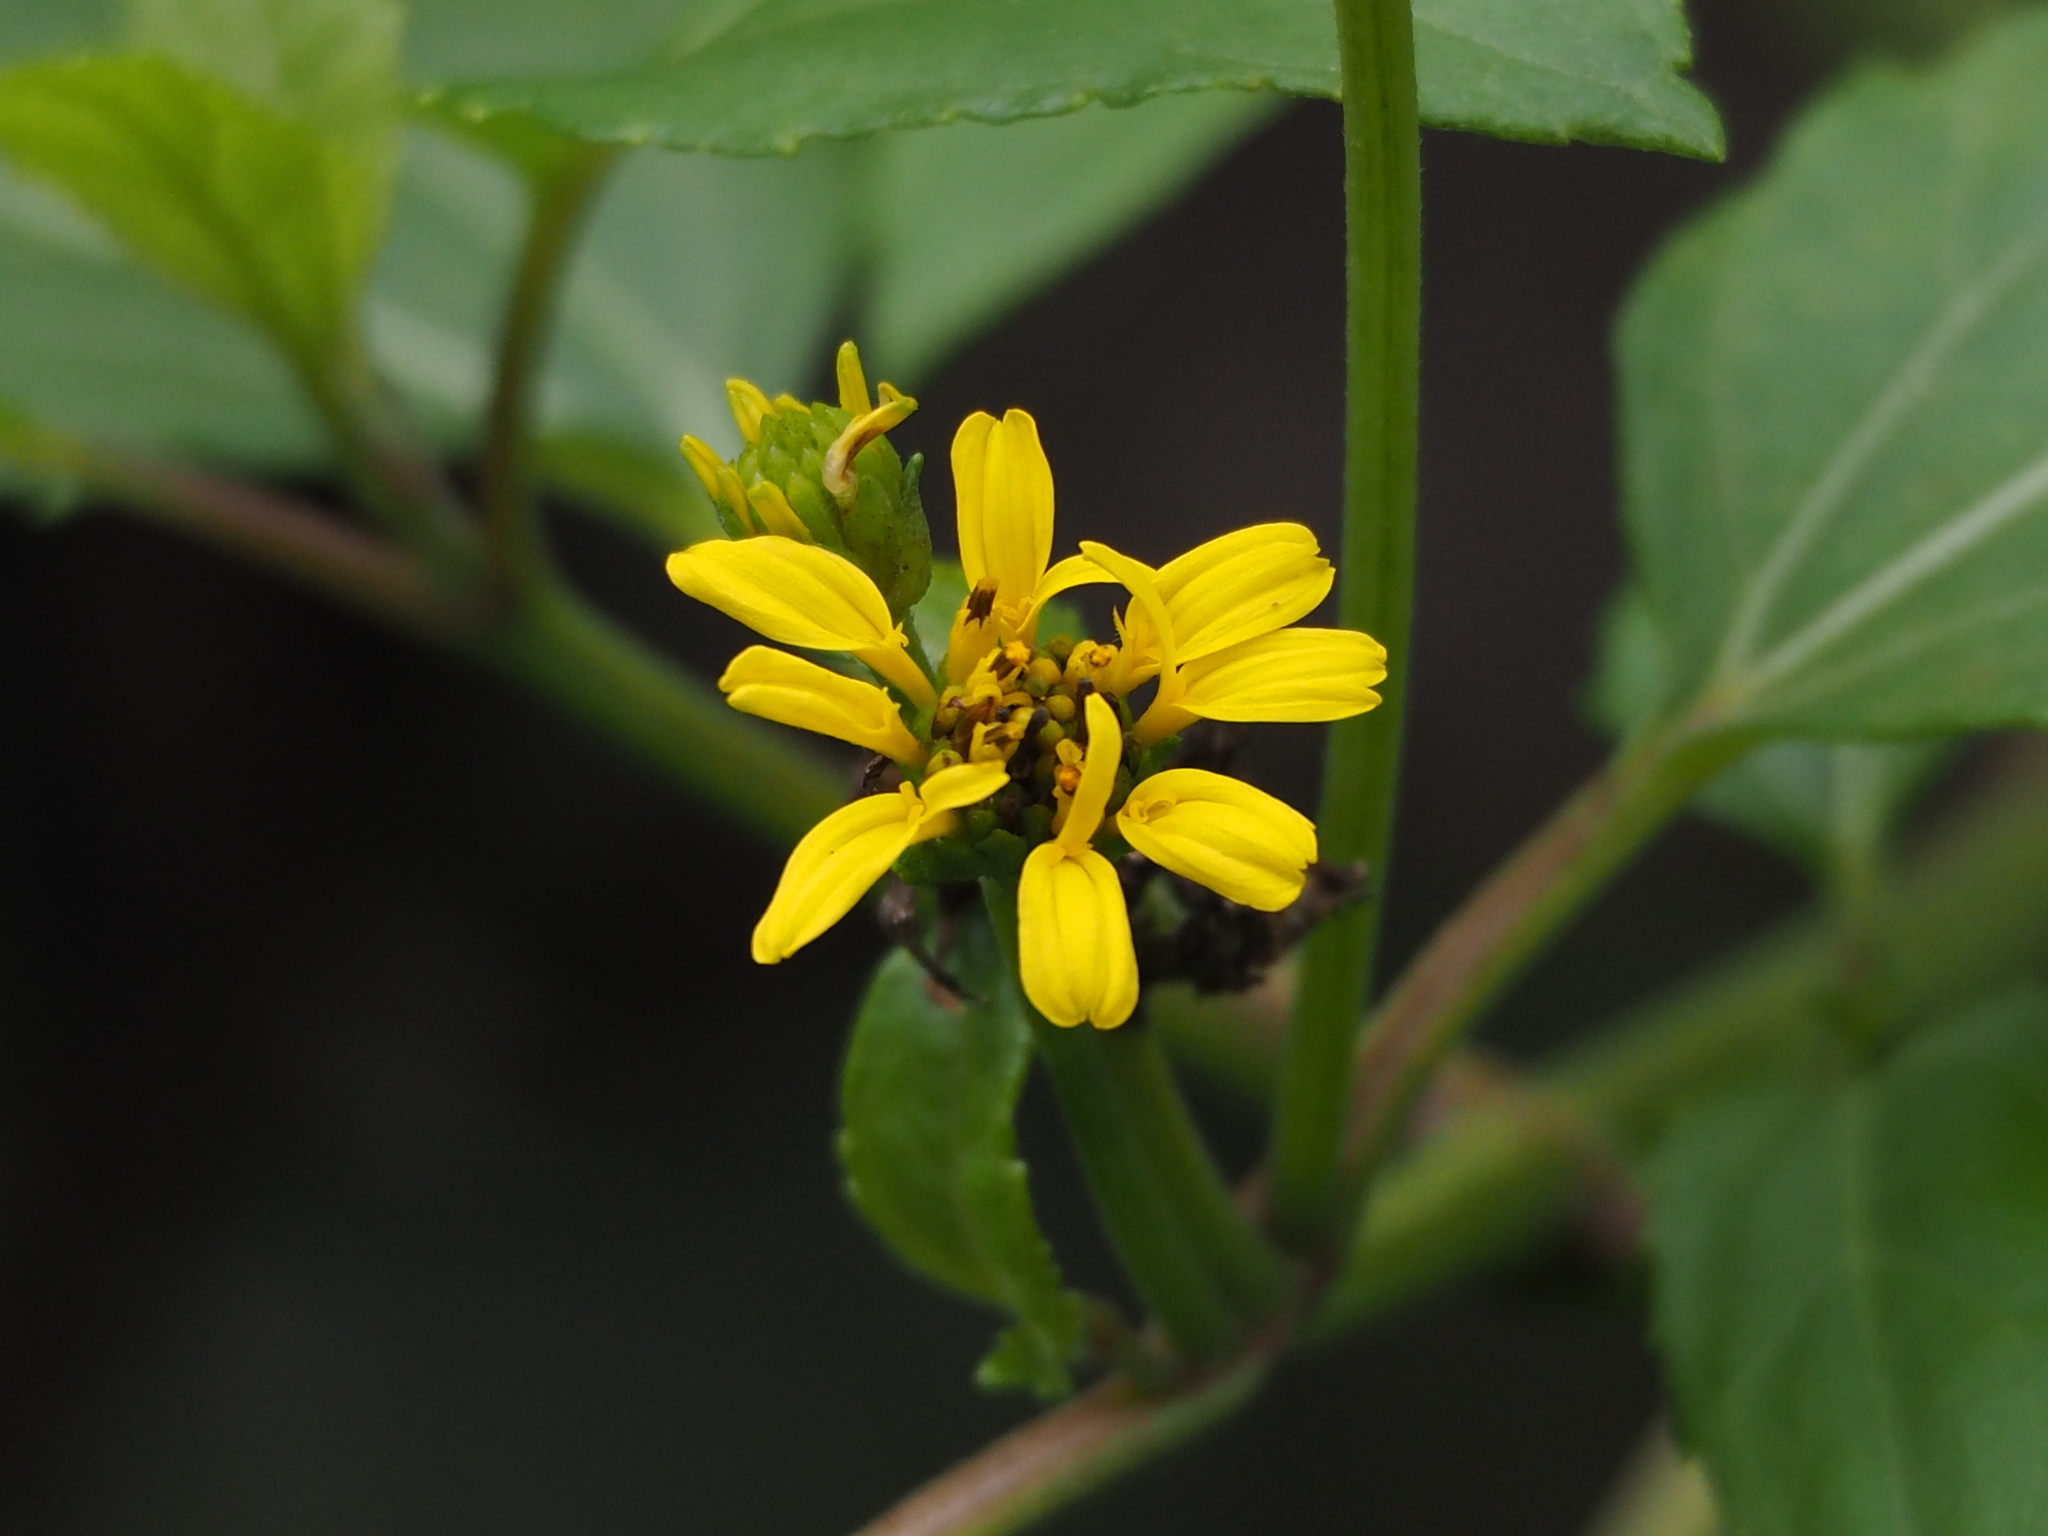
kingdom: Plantae
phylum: Tracheophyta
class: Magnoliopsida
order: Asterales
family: Asteraceae
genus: Wollastonia
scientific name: Wollastonia biflora
